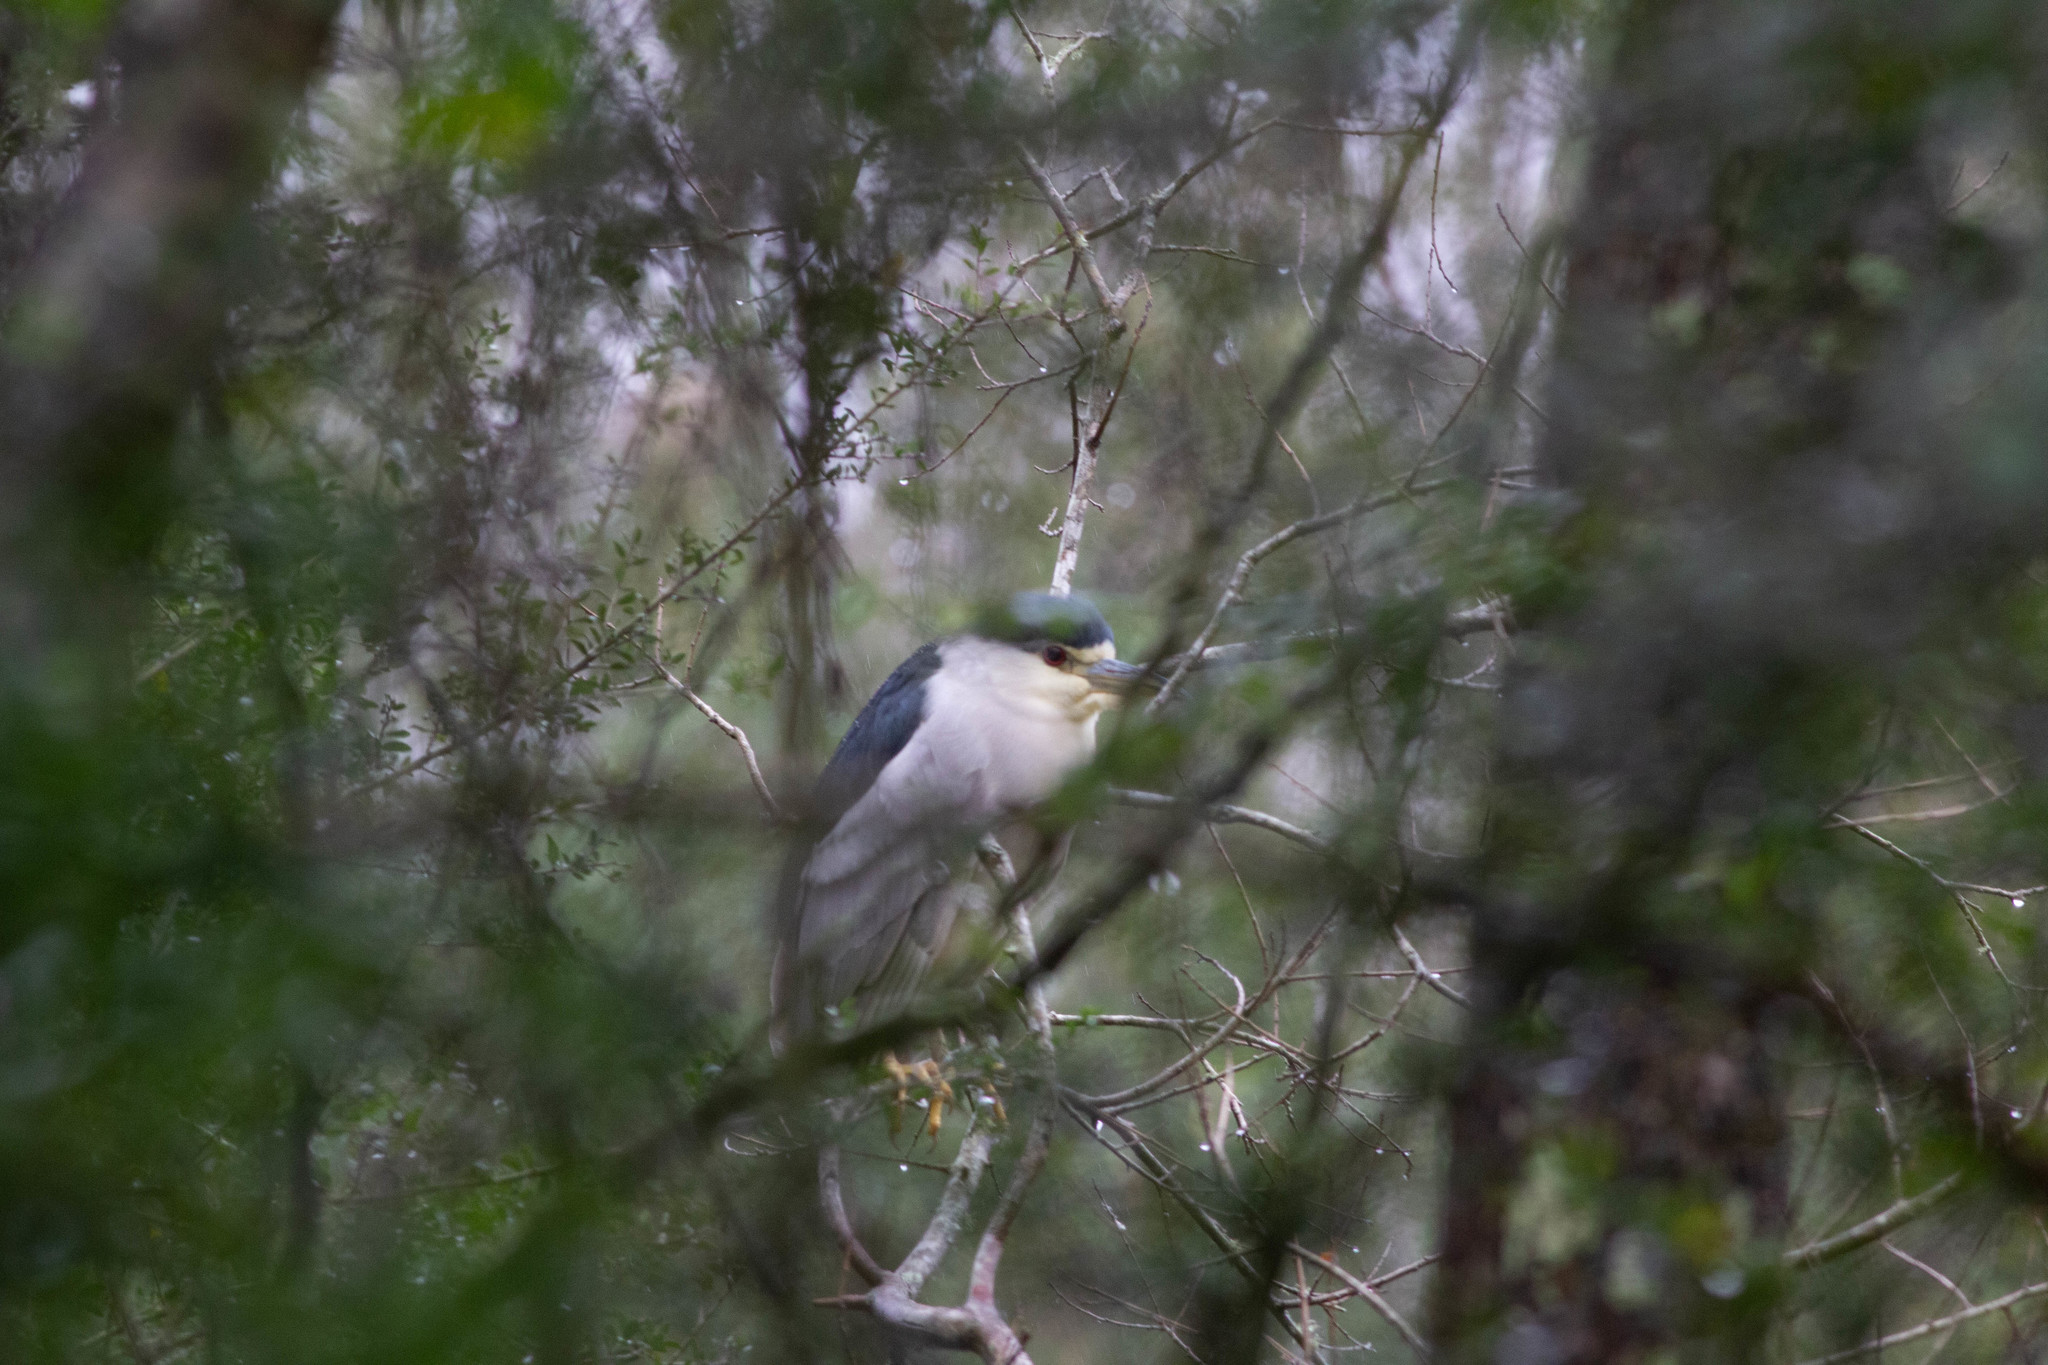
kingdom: Animalia
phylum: Chordata
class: Aves
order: Pelecaniformes
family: Ardeidae
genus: Nycticorax
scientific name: Nycticorax nycticorax
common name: Black-crowned night heron
